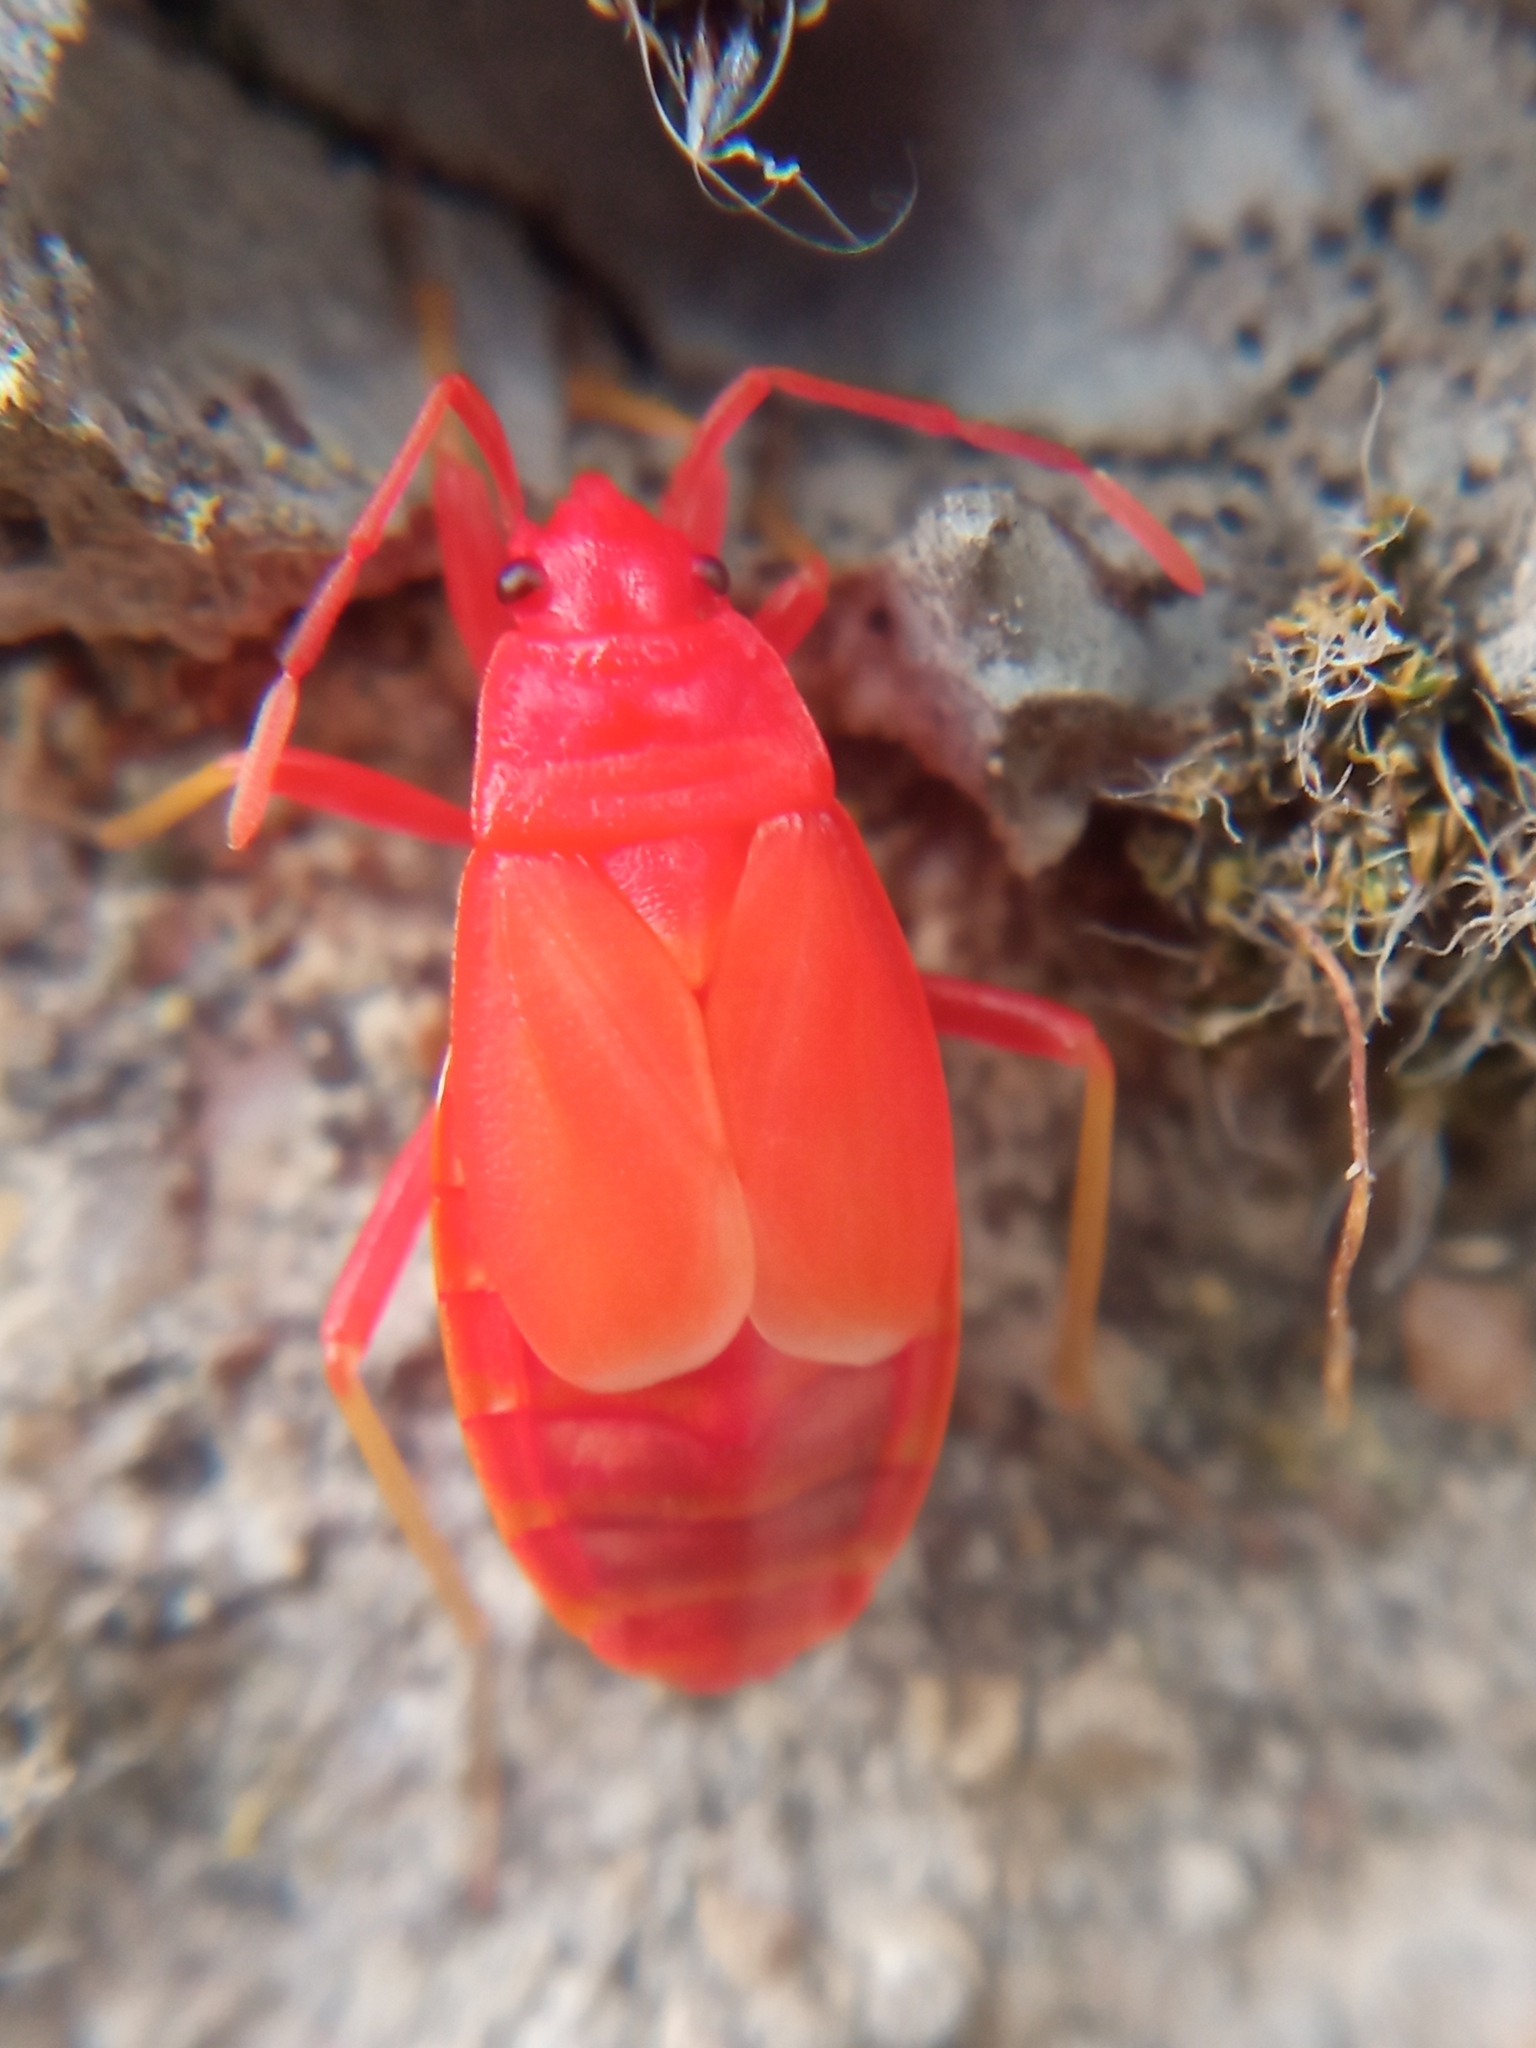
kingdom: Animalia
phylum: Arthropoda
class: Insecta
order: Hemiptera
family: Pyrrhocoridae
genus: Pyrrhocoris
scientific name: Pyrrhocoris apterus
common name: Firebug
